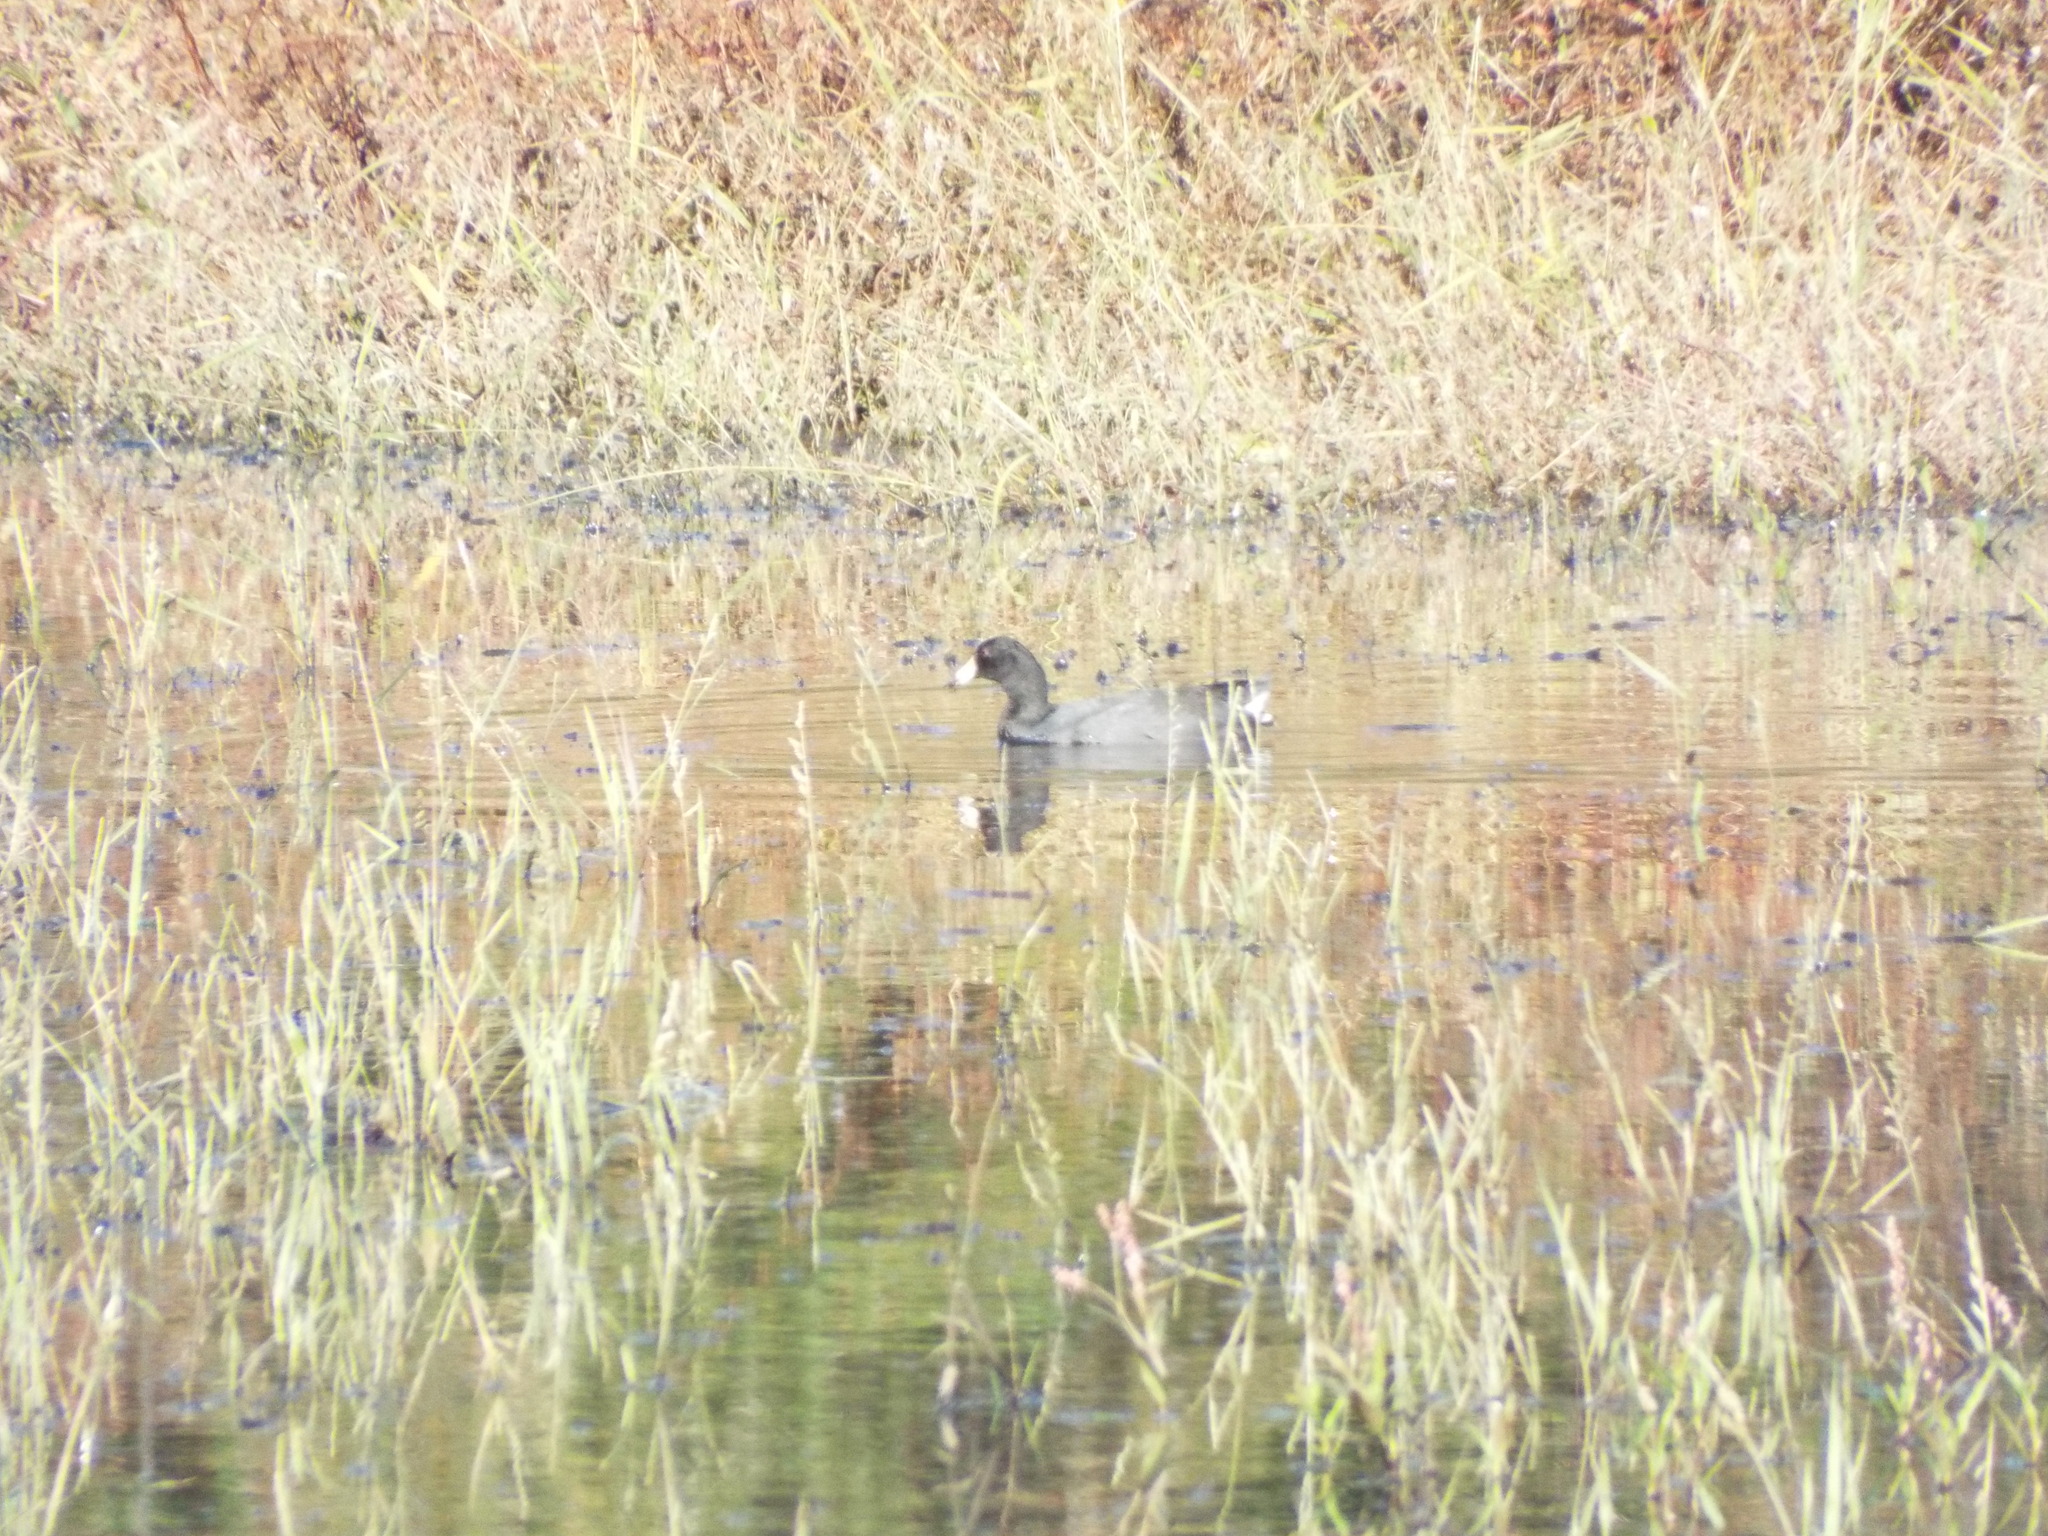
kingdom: Animalia
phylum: Chordata
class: Aves
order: Gruiformes
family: Rallidae
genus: Fulica
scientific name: Fulica americana
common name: American coot
